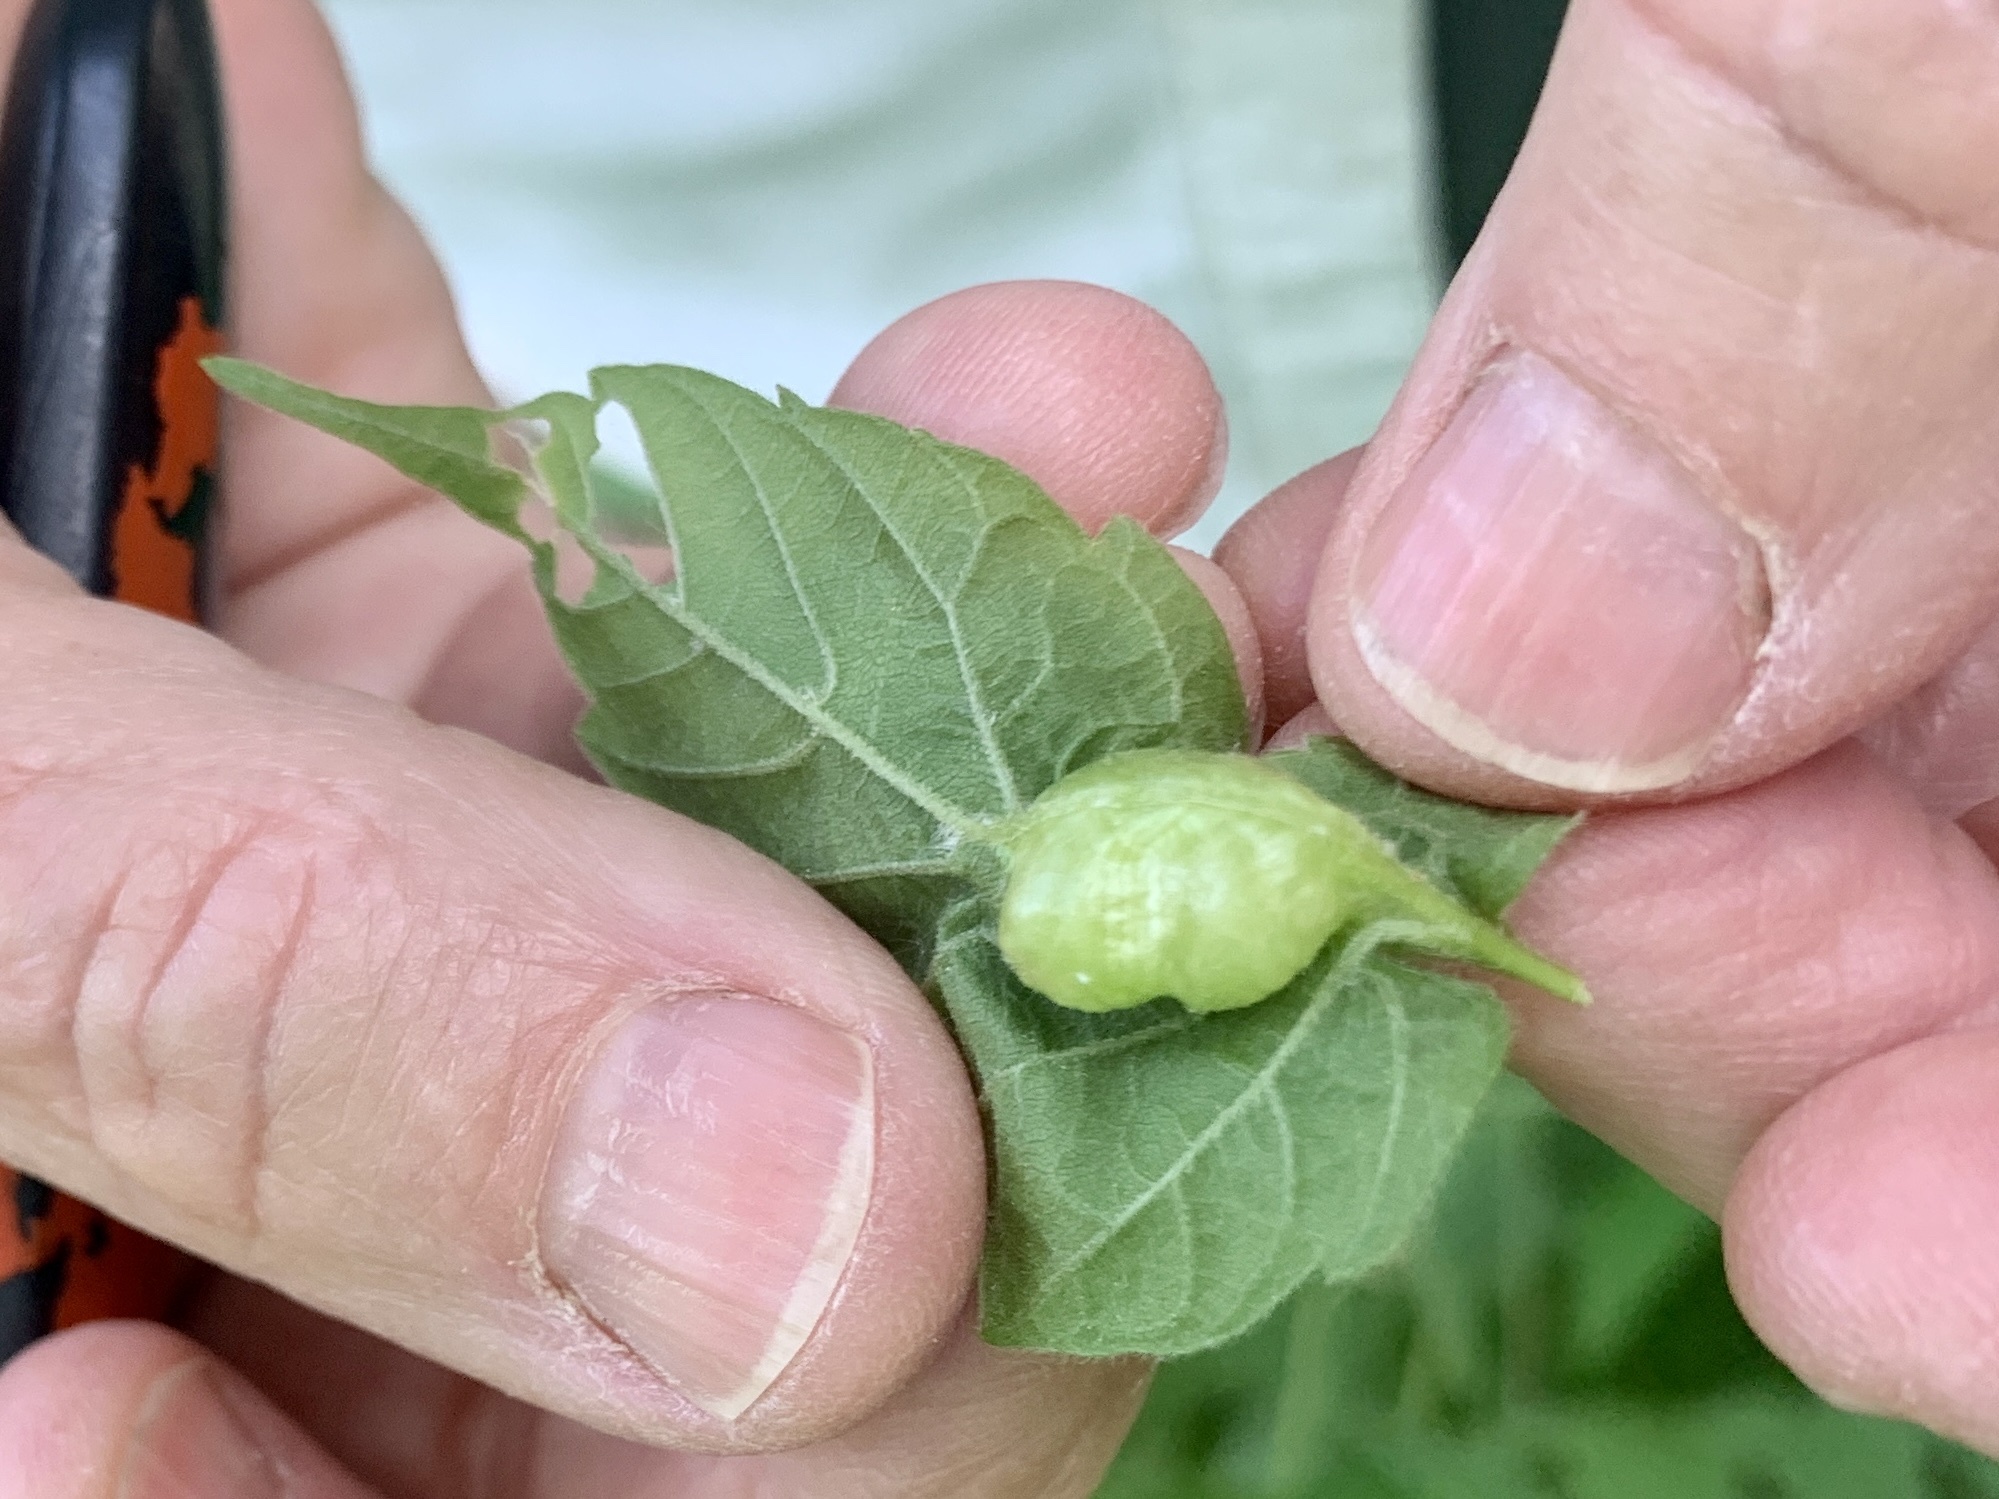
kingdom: Animalia
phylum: Arthropoda
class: Insecta
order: Diptera
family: Cecidomyiidae
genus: Contarinia
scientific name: Contarinia negundinis
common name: Boxelder budgall midge
